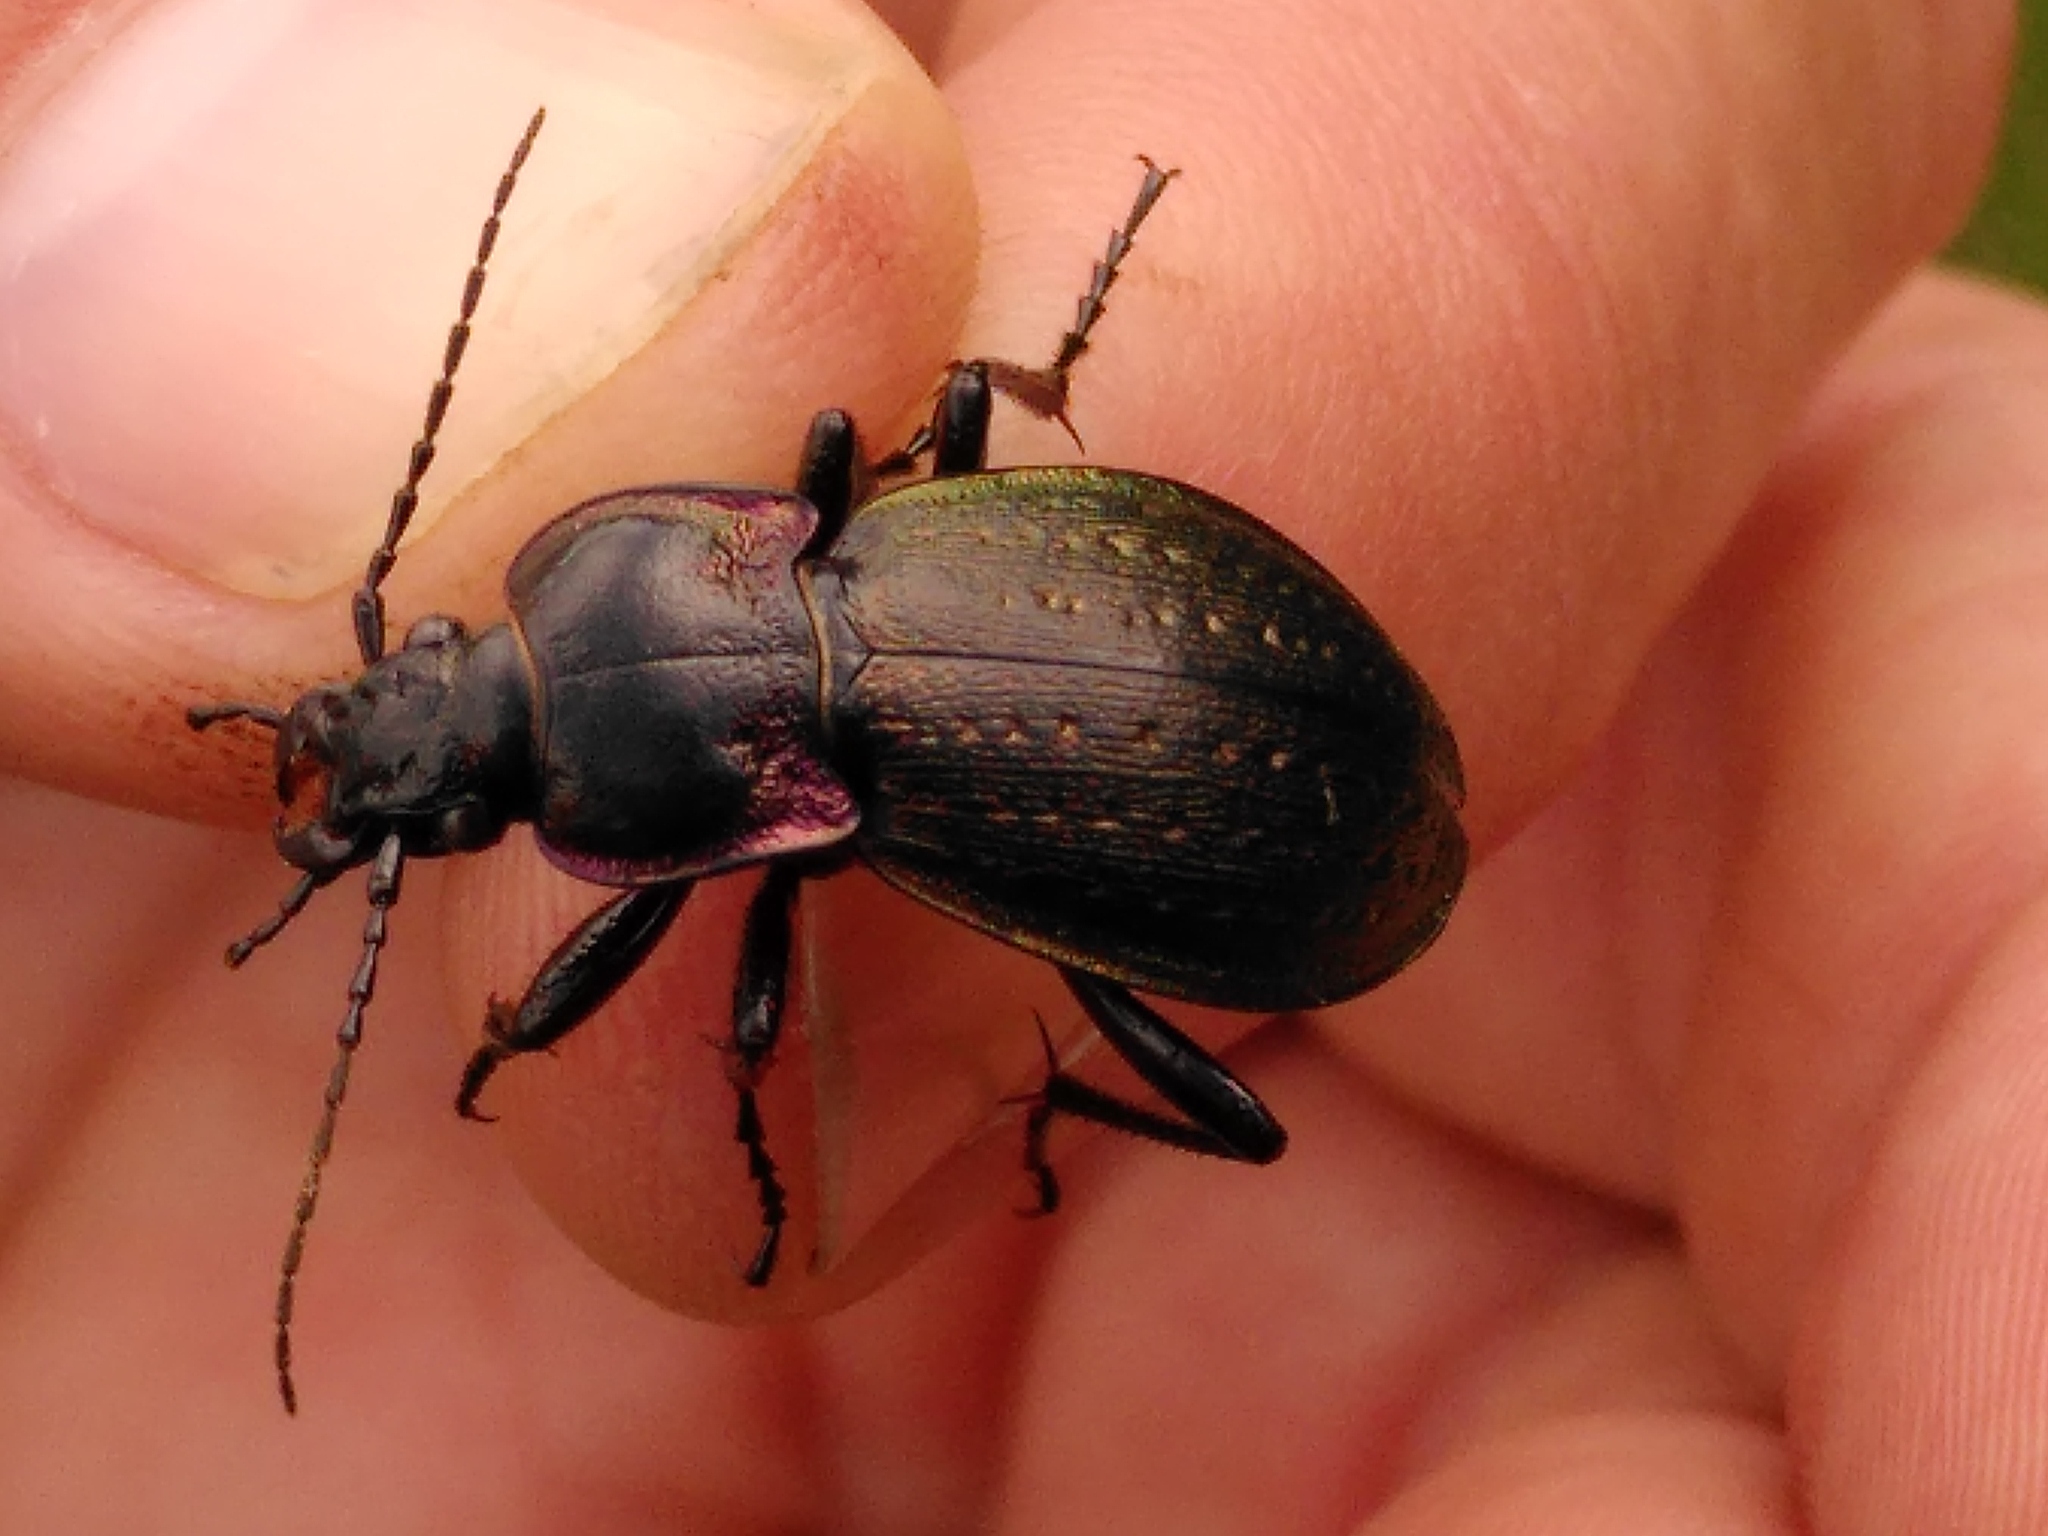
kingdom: Animalia
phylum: Arthropoda
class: Insecta
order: Coleoptera
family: Carabidae
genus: Carabus
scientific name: Carabus nemoralis
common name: European ground beetle
